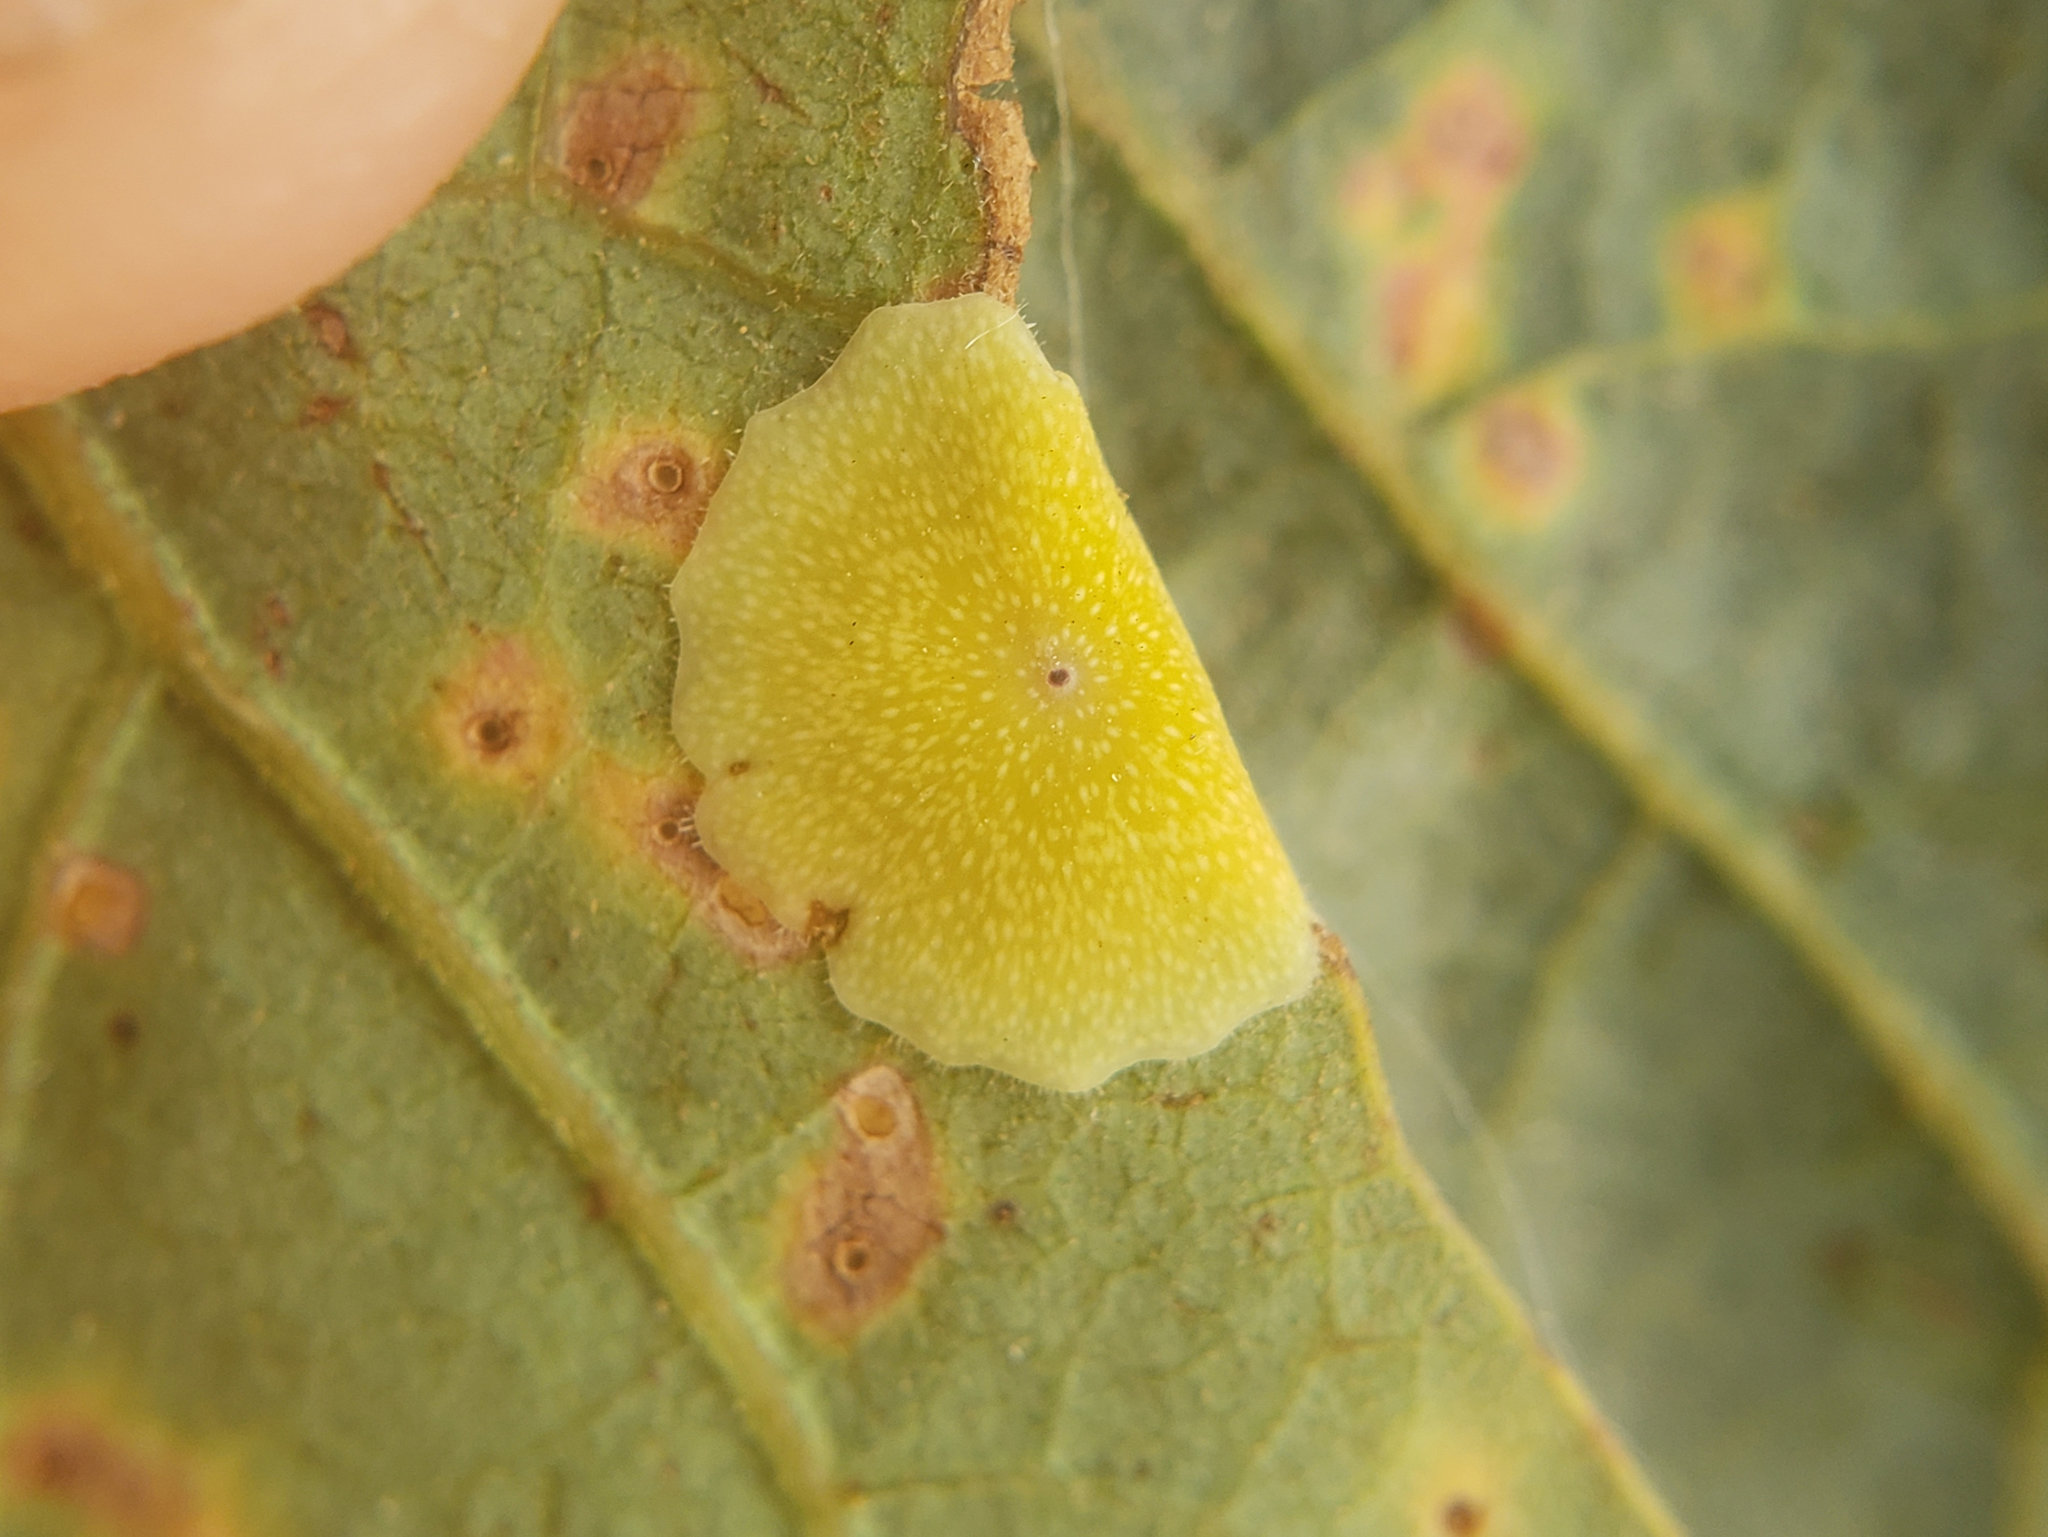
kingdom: Animalia
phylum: Arthropoda
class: Insecta
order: Hymenoptera
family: Cynipidae
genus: Andricus
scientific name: Andricus
